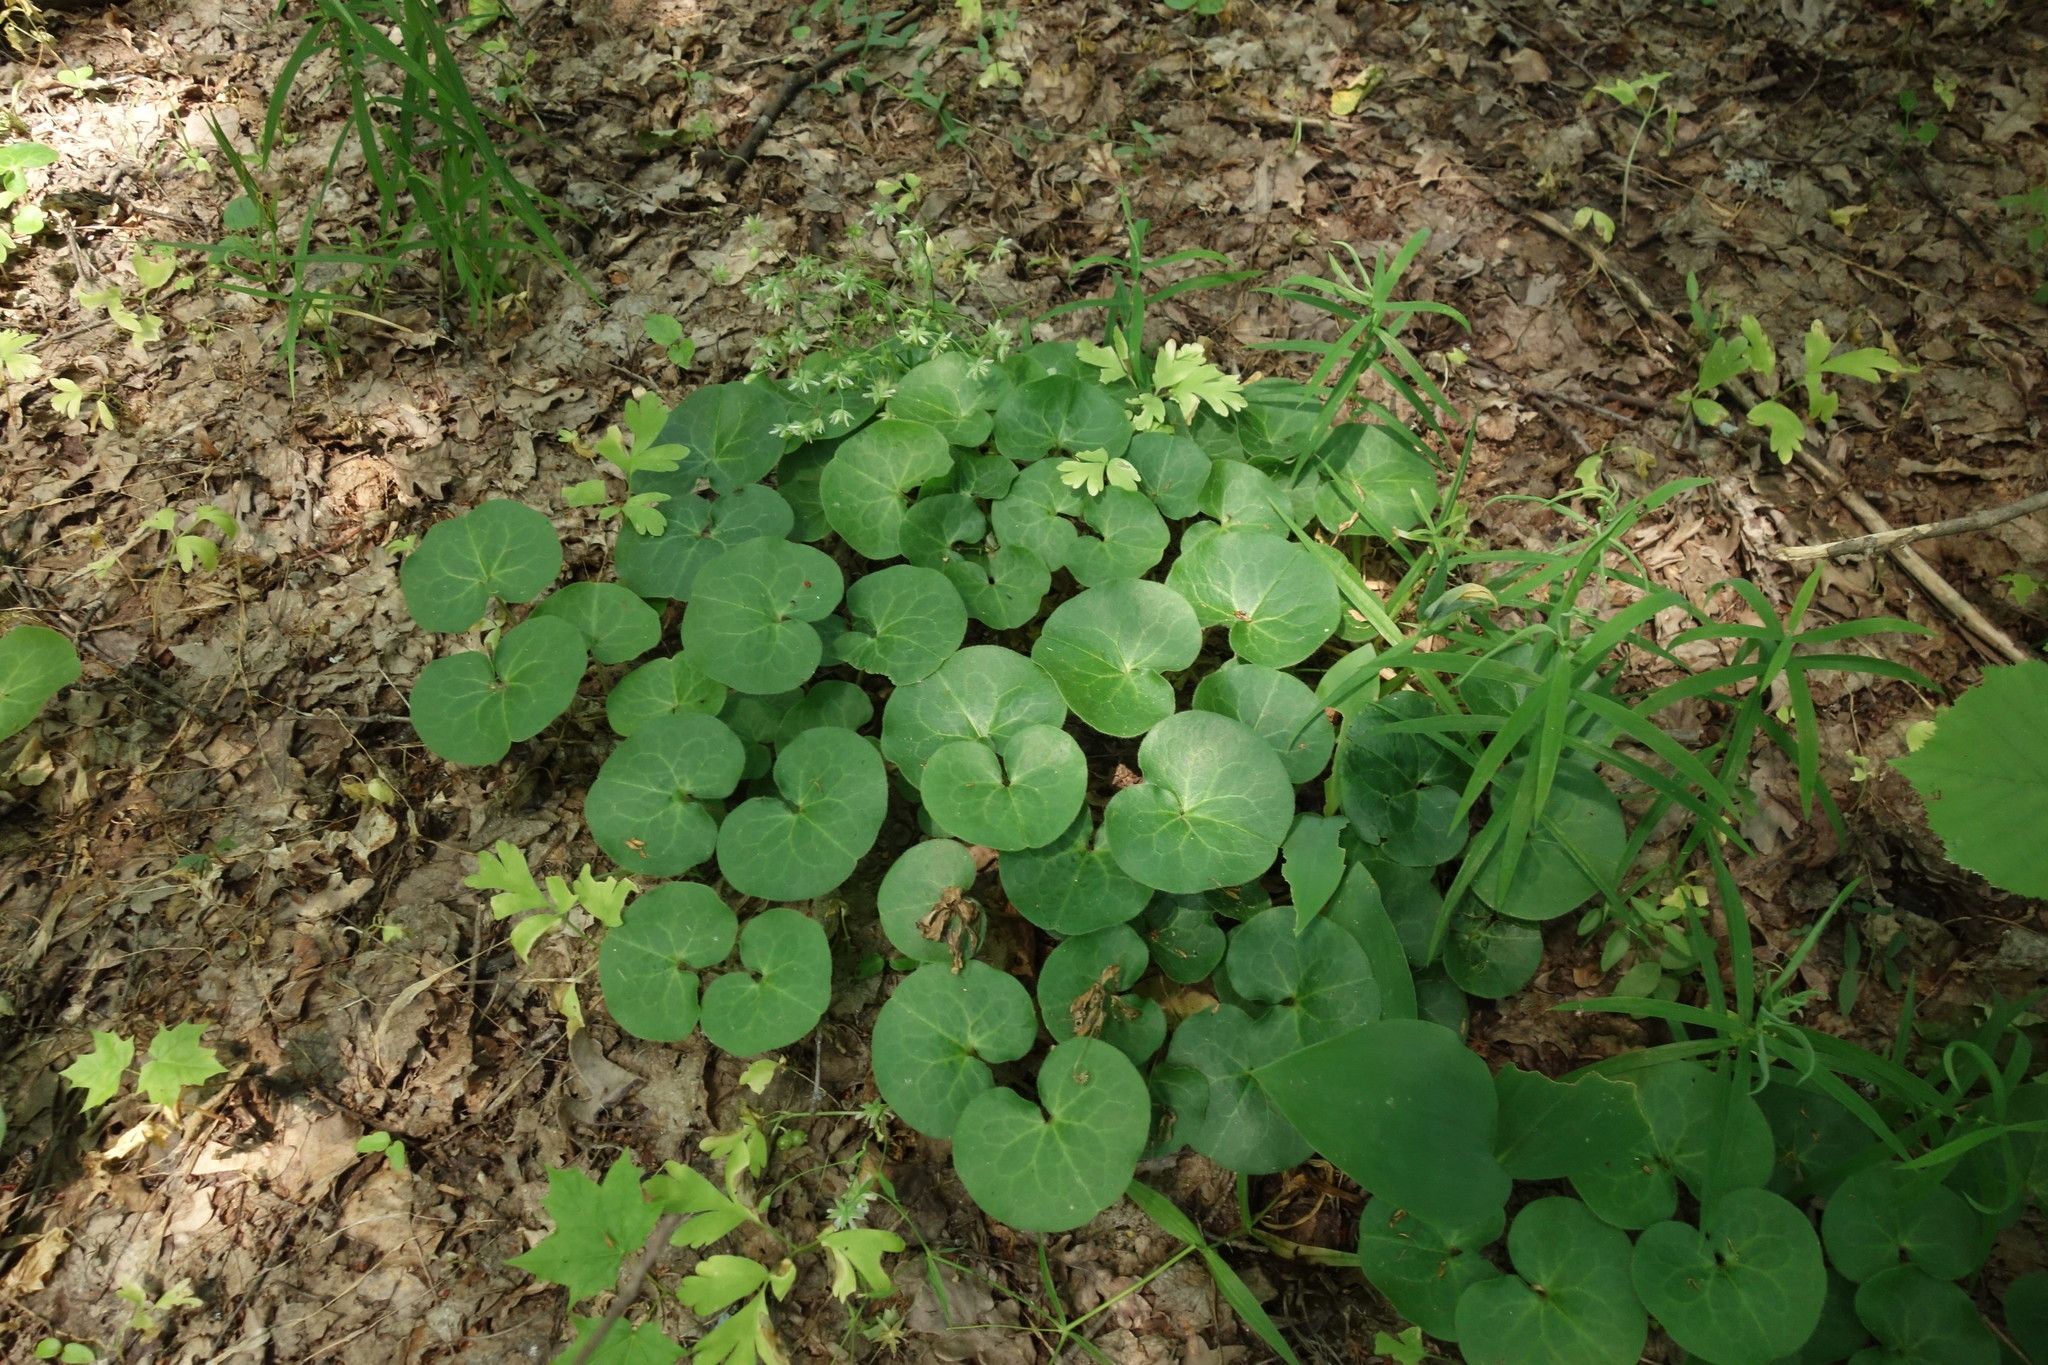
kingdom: Plantae
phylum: Tracheophyta
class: Magnoliopsida
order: Piperales
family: Aristolochiaceae
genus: Asarum
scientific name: Asarum europaeum
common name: Asarabacca
